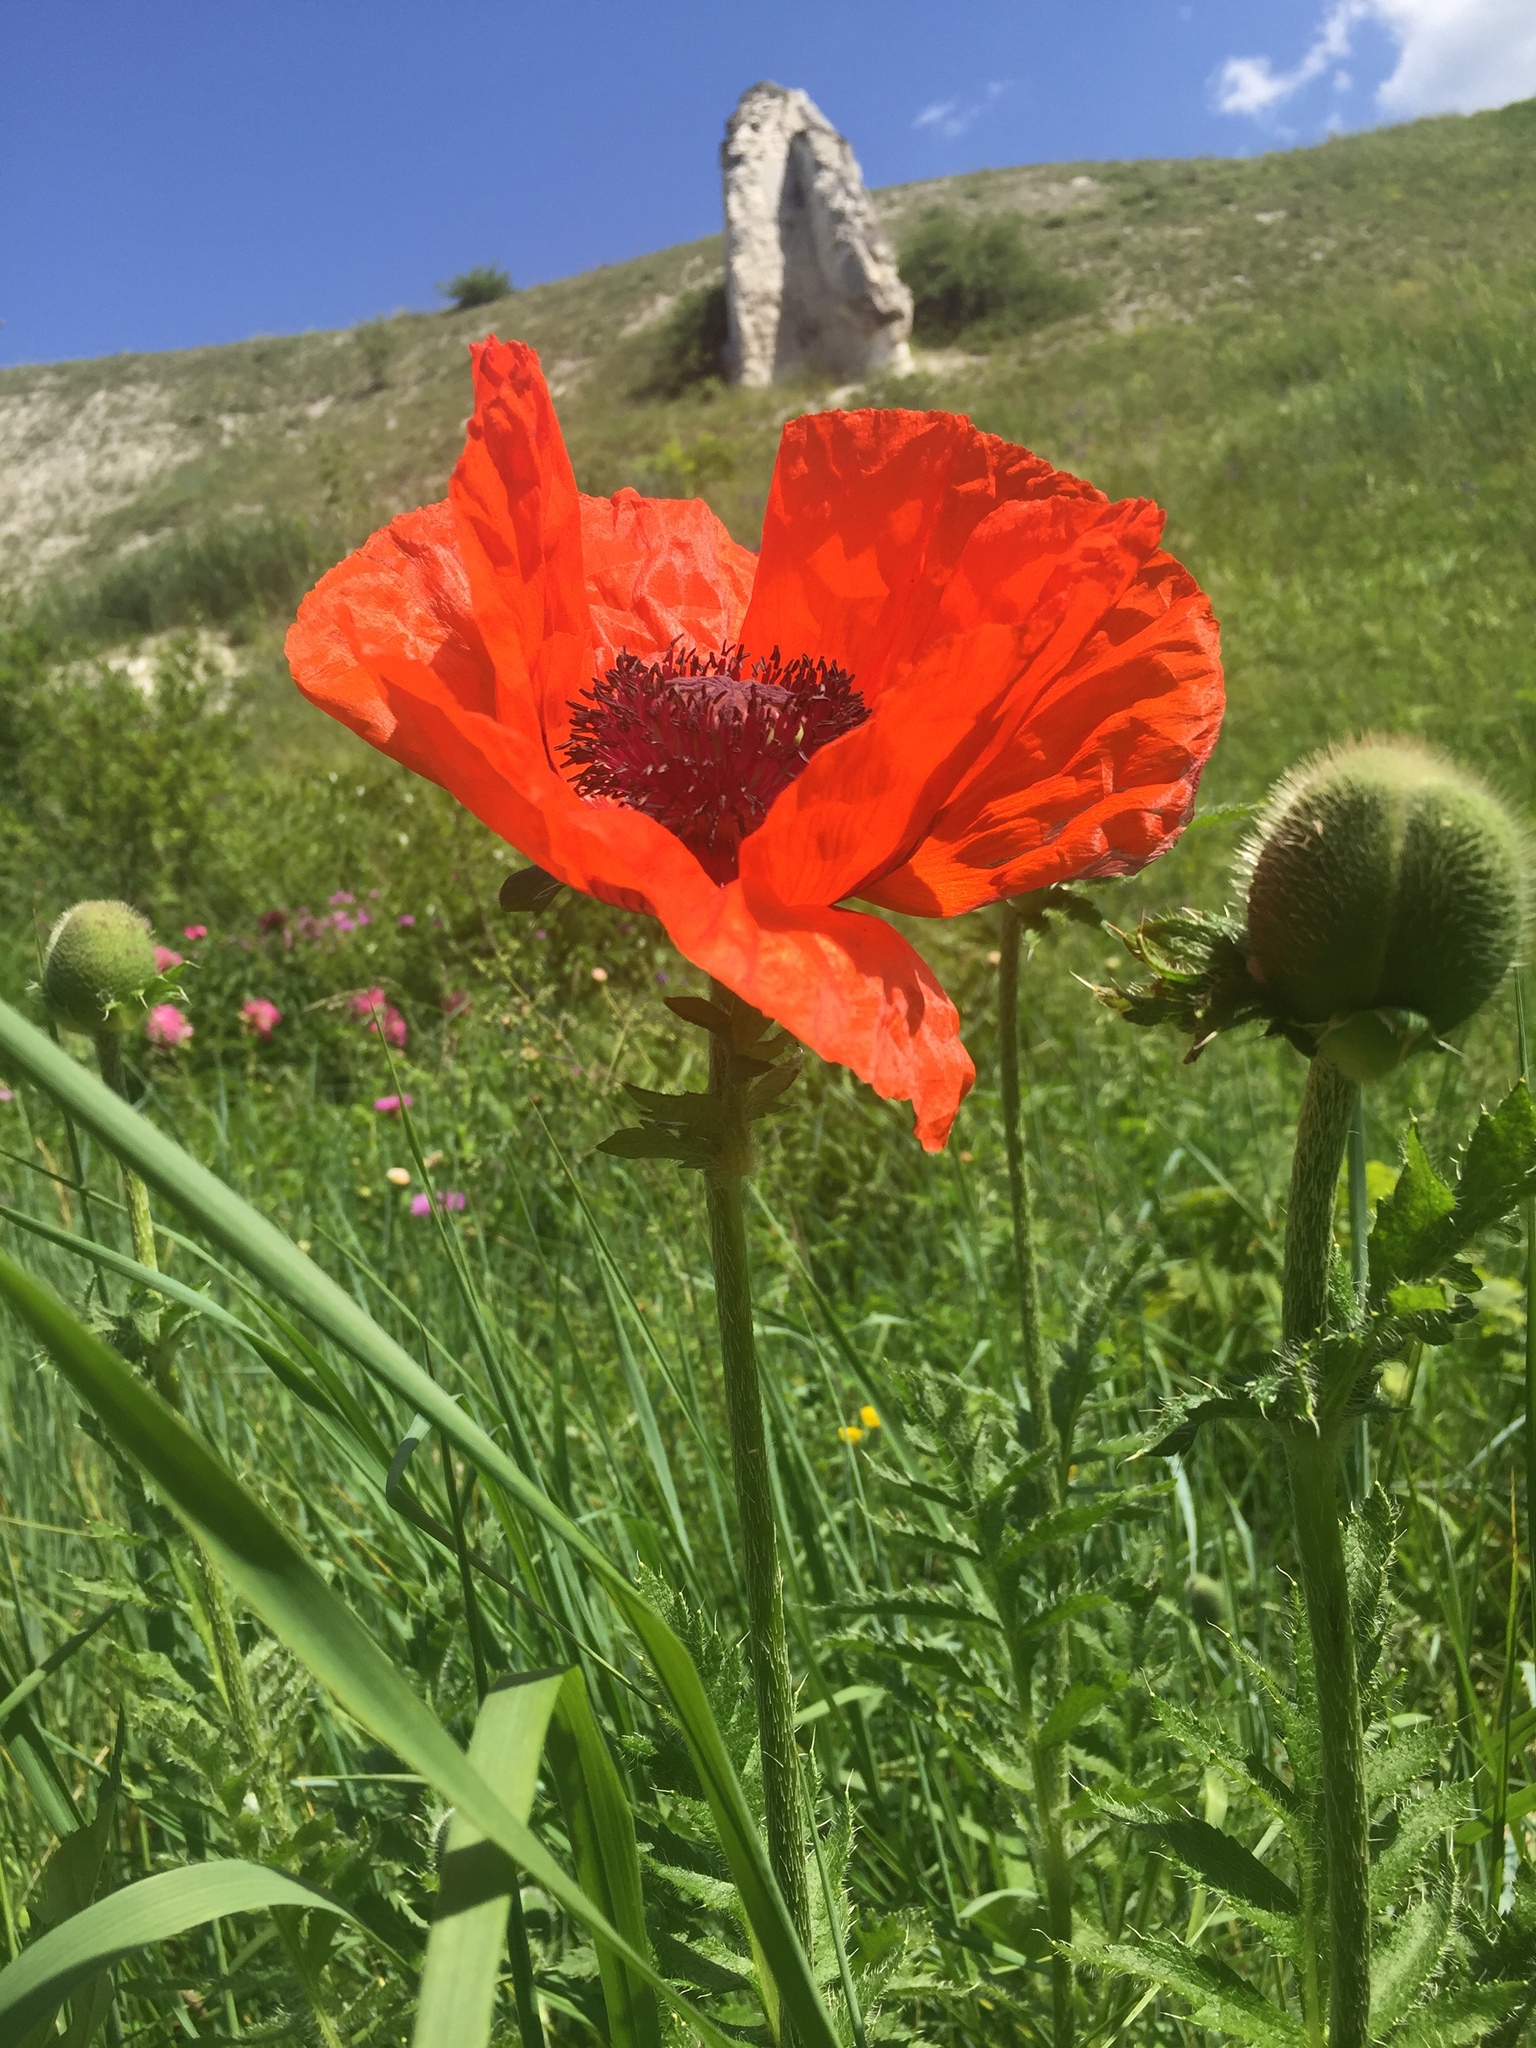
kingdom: Plantae
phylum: Tracheophyta
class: Magnoliopsida
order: Ranunculales
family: Papaveraceae
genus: Papaver
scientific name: Papaver orientale
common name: Oriental poppy
